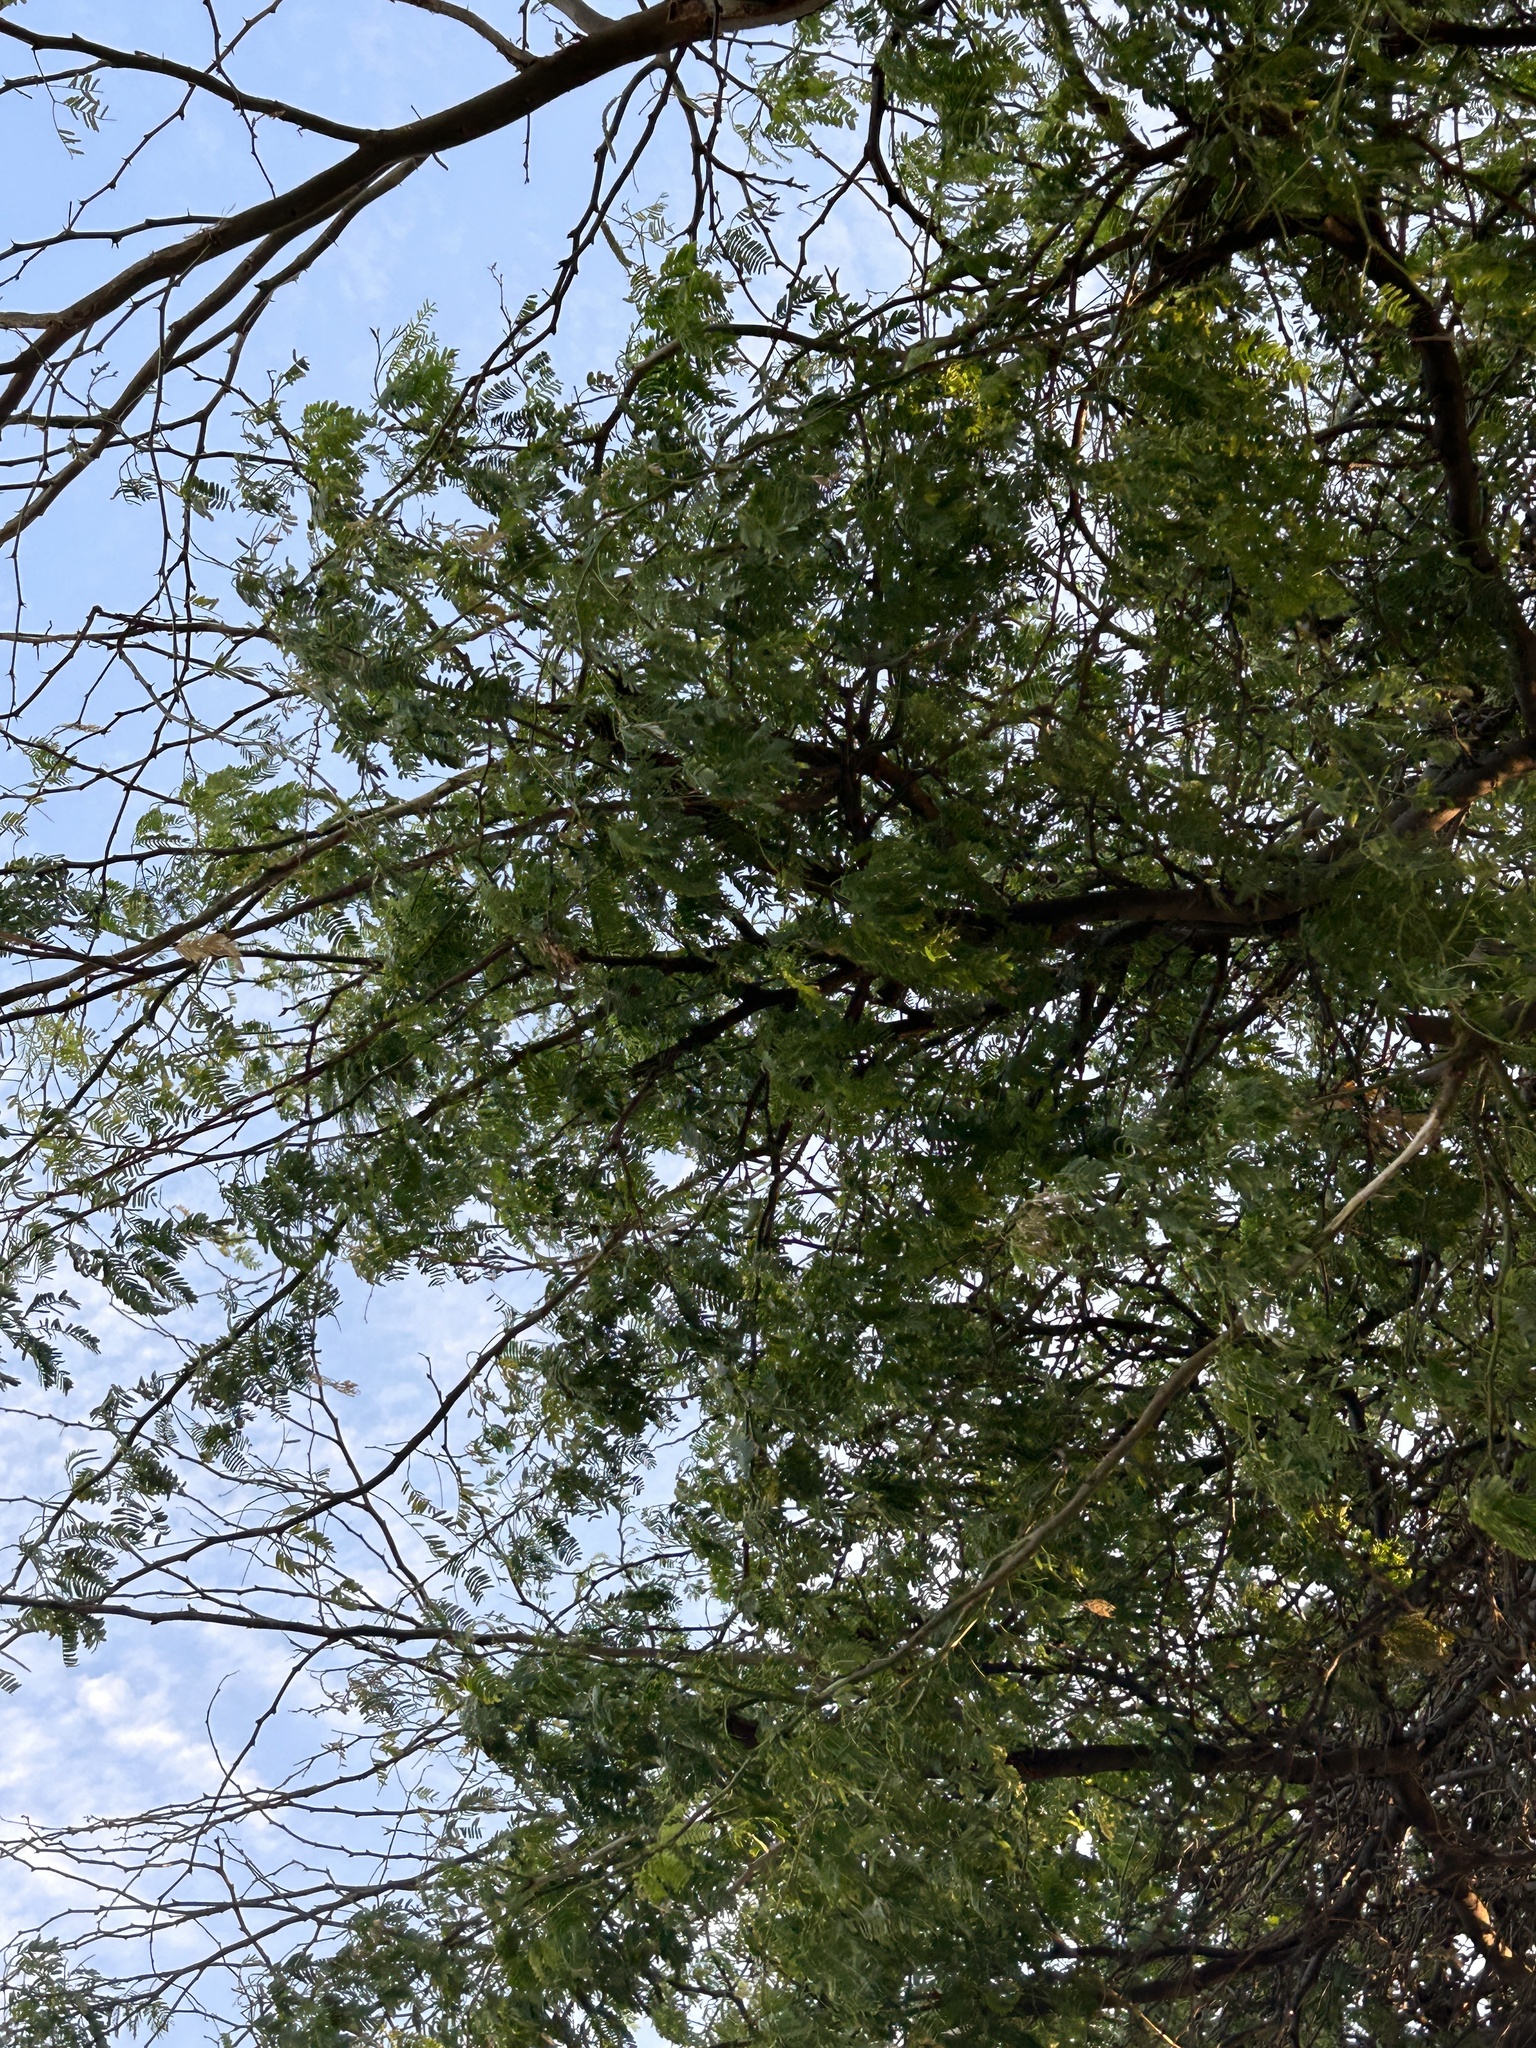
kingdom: Plantae
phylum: Tracheophyta
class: Magnoliopsida
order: Fabales
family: Fabaceae
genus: Prosopis
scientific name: Prosopis juliflora
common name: Mesquite
